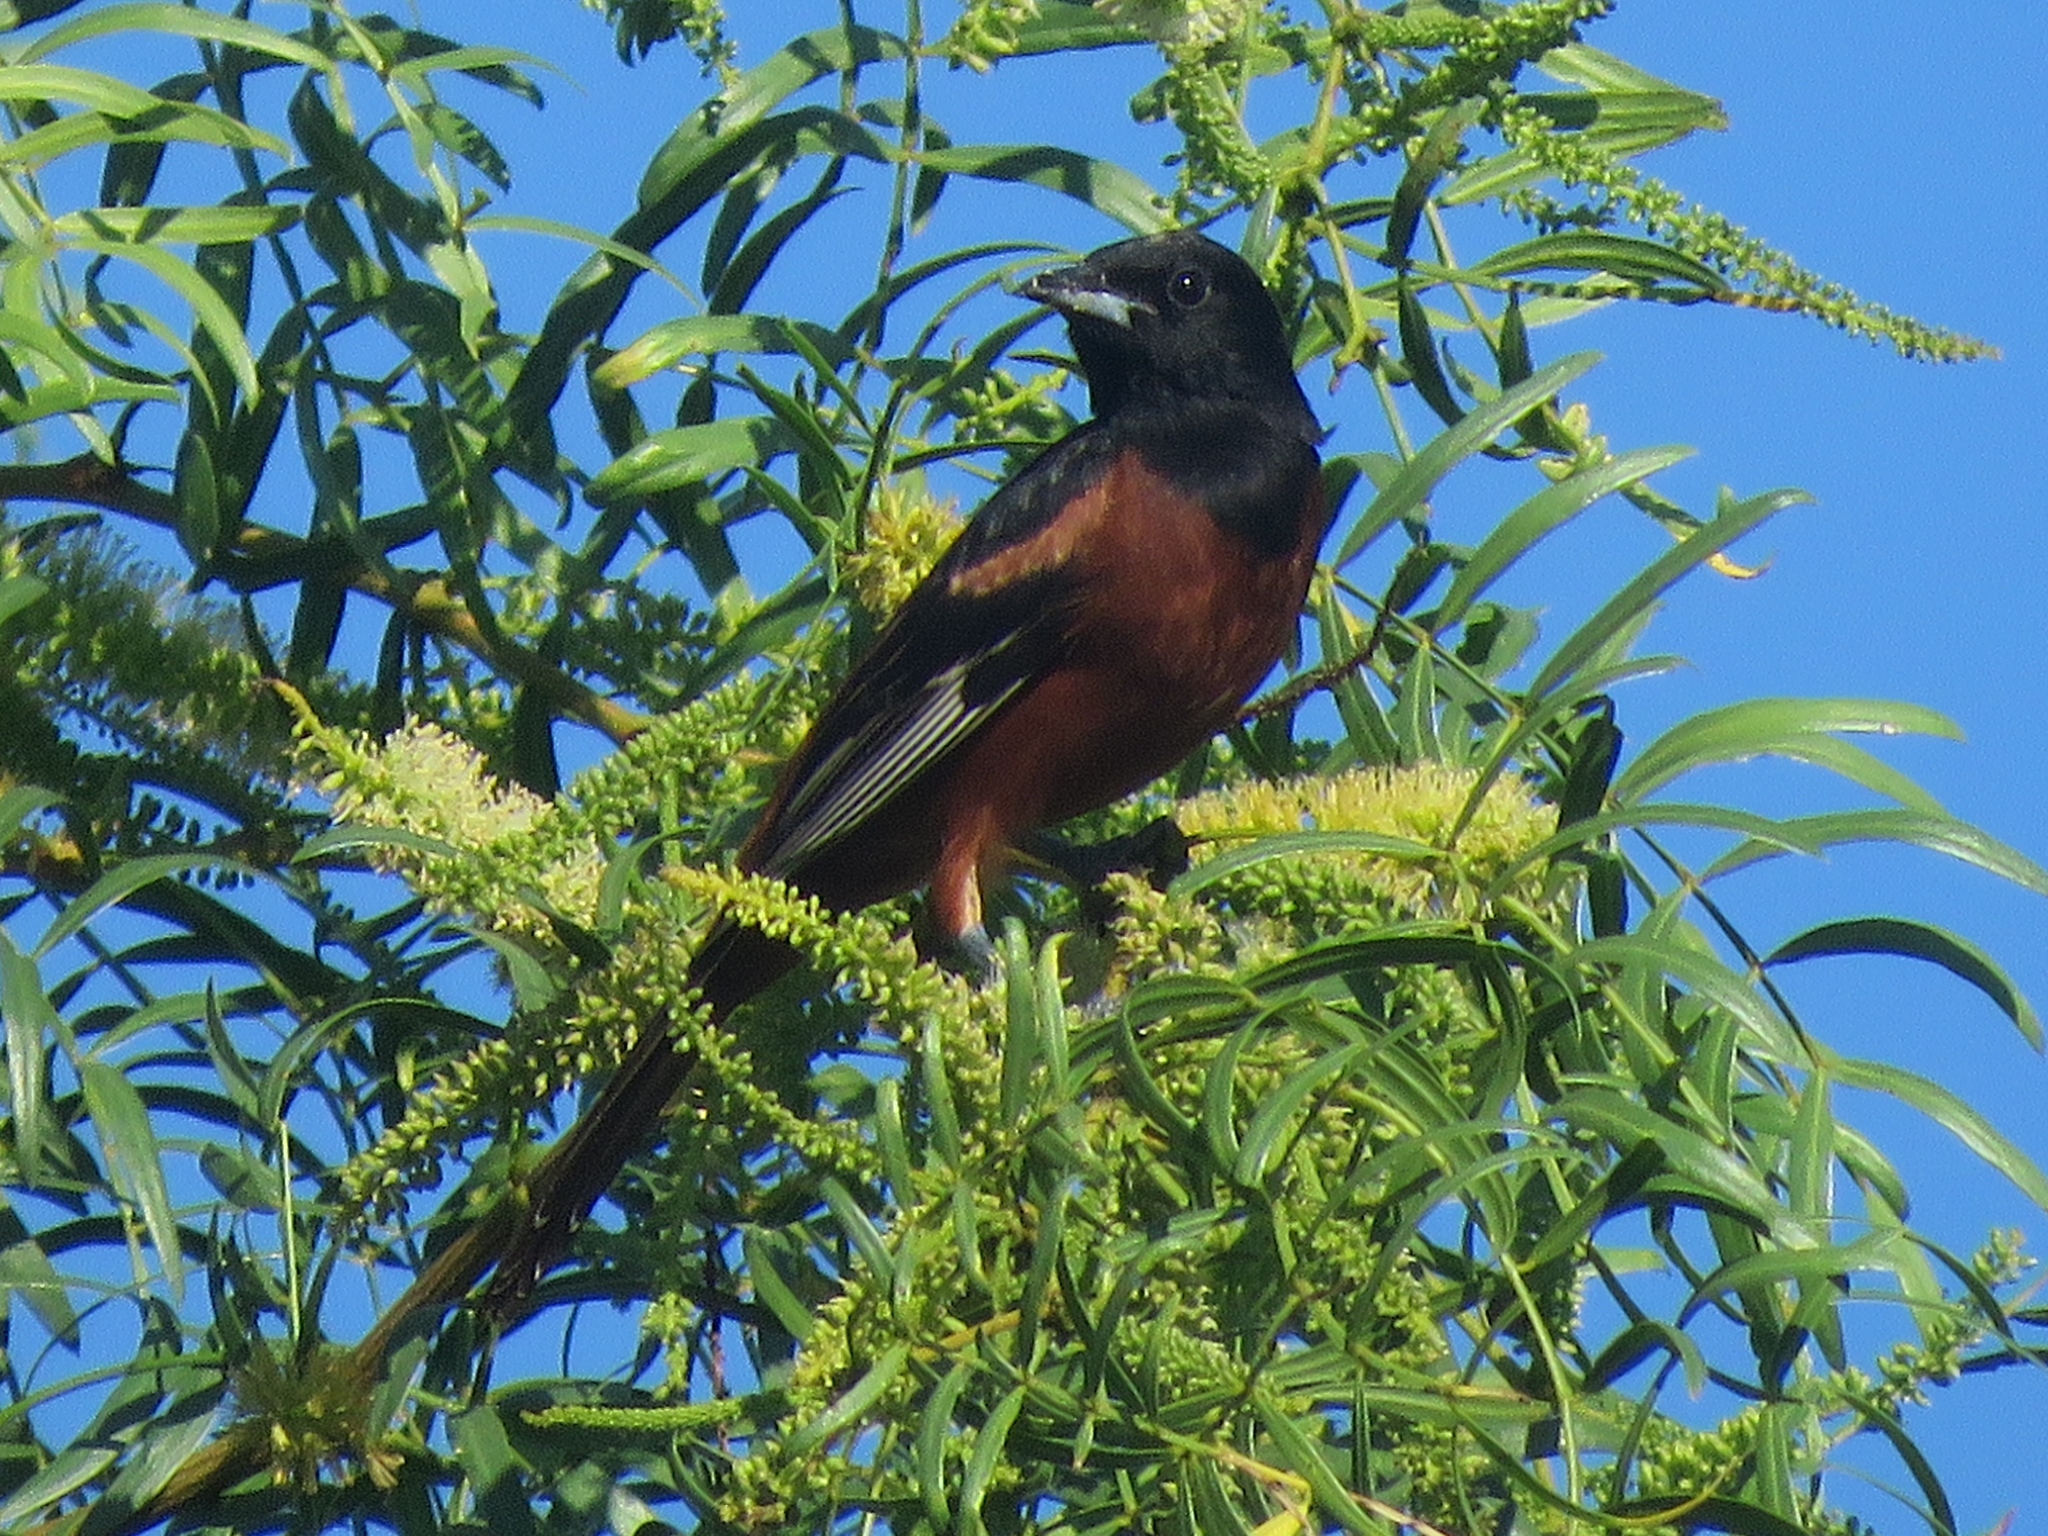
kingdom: Animalia
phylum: Chordata
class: Aves
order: Passeriformes
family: Icteridae
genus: Icterus
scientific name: Icterus spurius
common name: Orchard oriole
